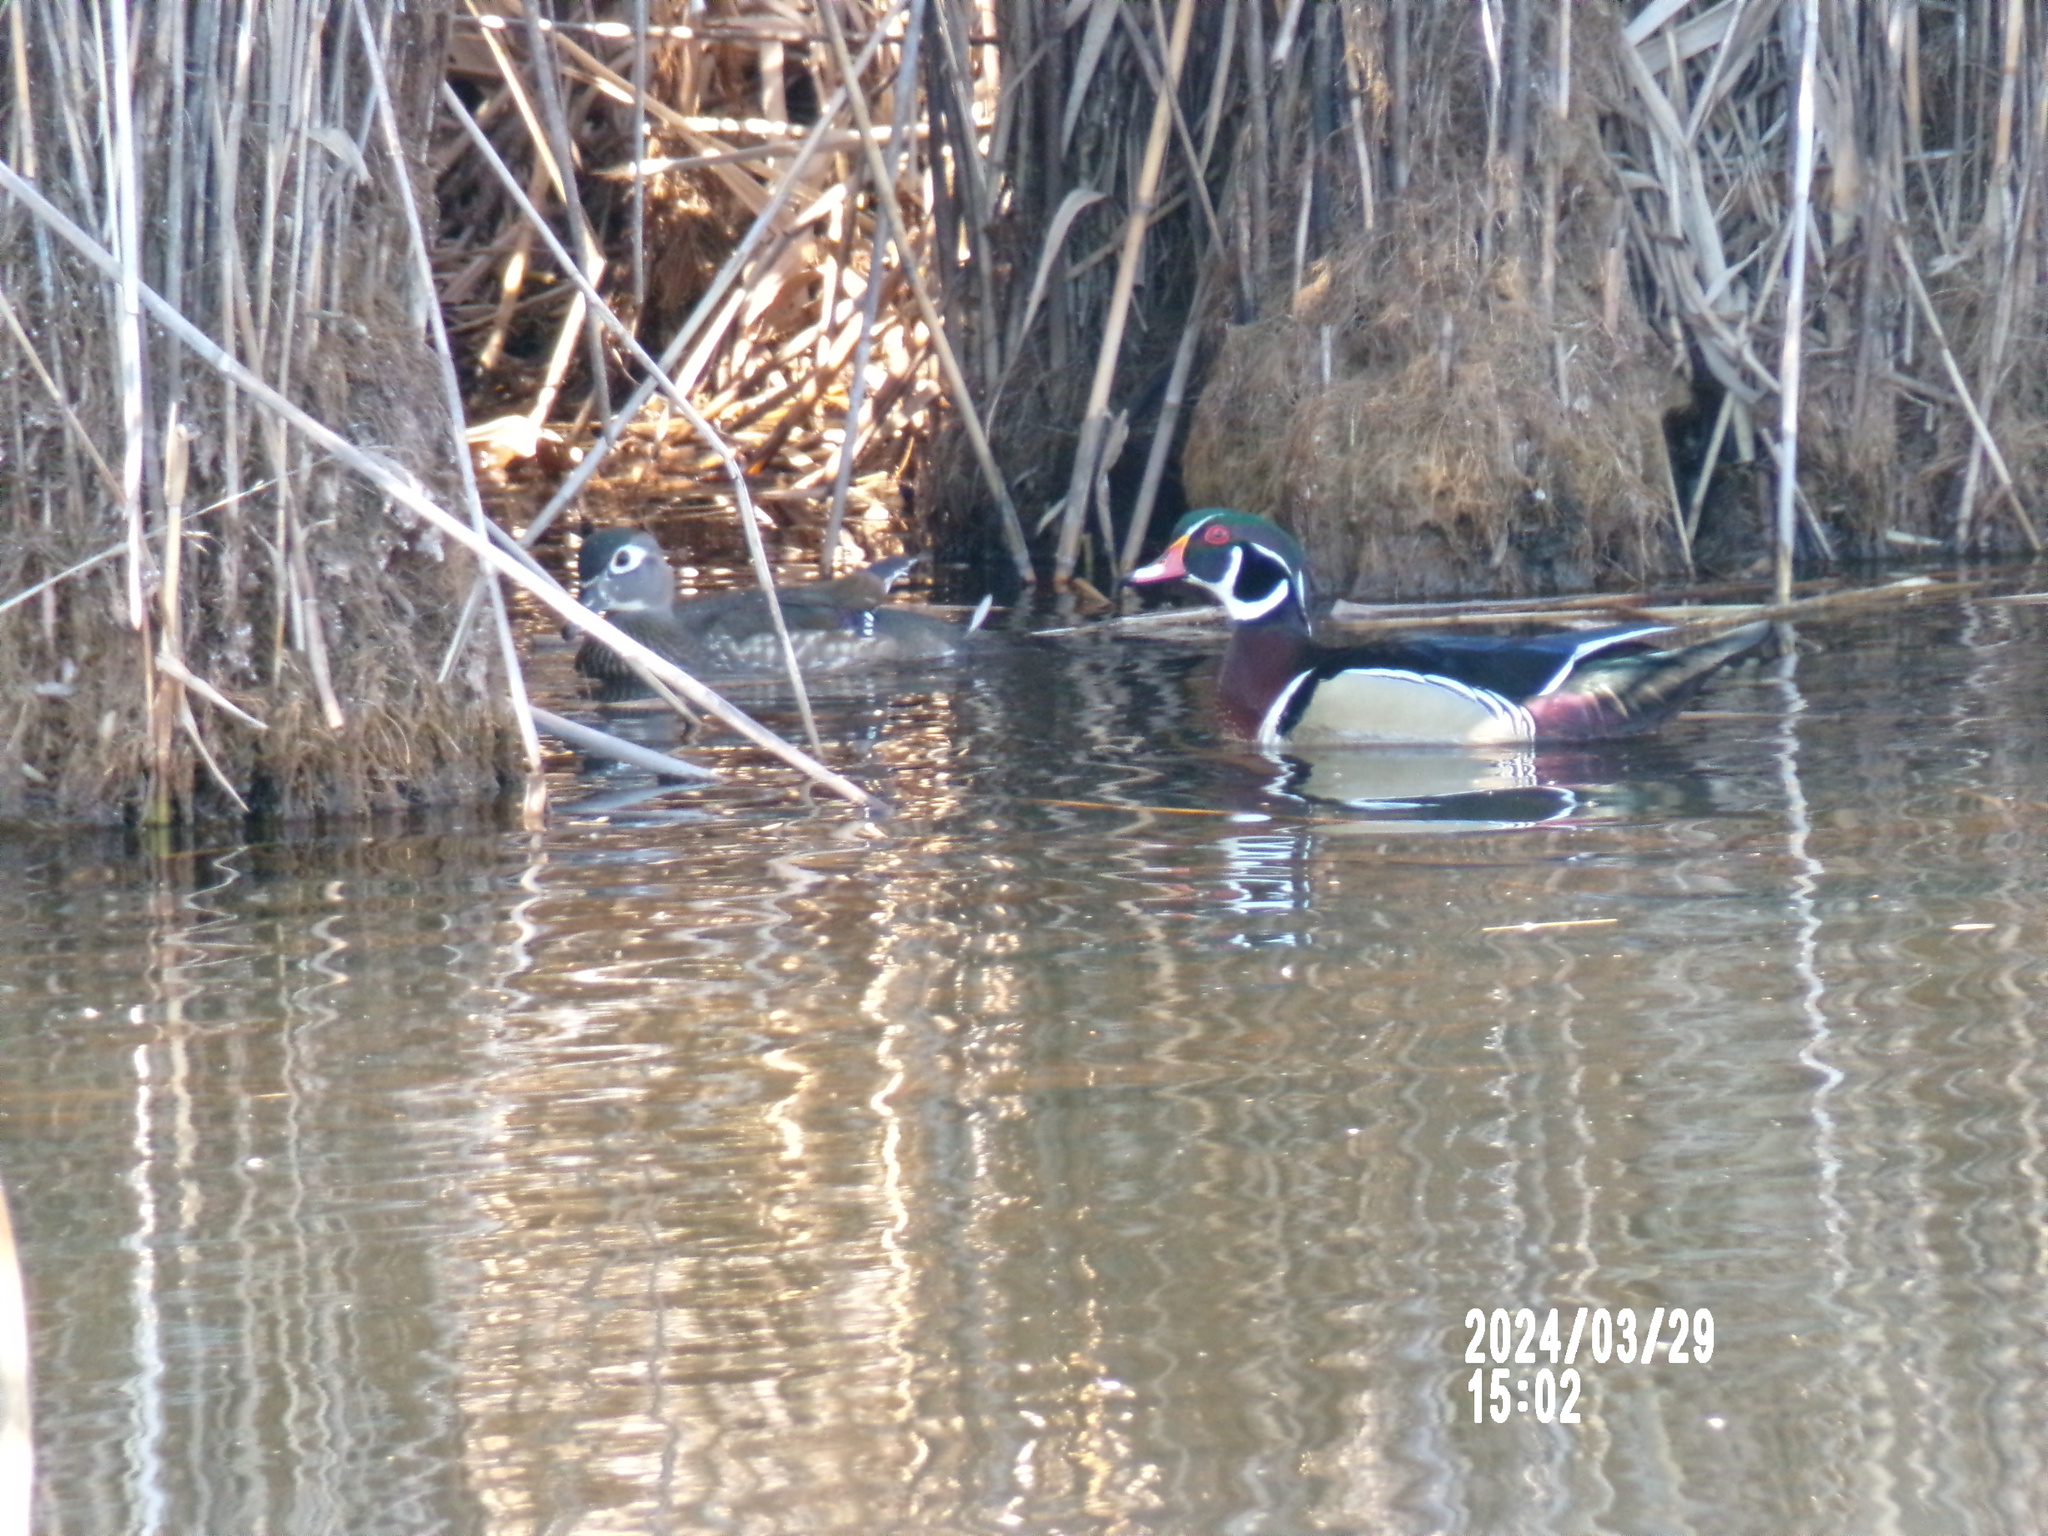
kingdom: Animalia
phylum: Chordata
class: Aves
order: Anseriformes
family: Anatidae
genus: Aix
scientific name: Aix sponsa
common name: Wood duck
